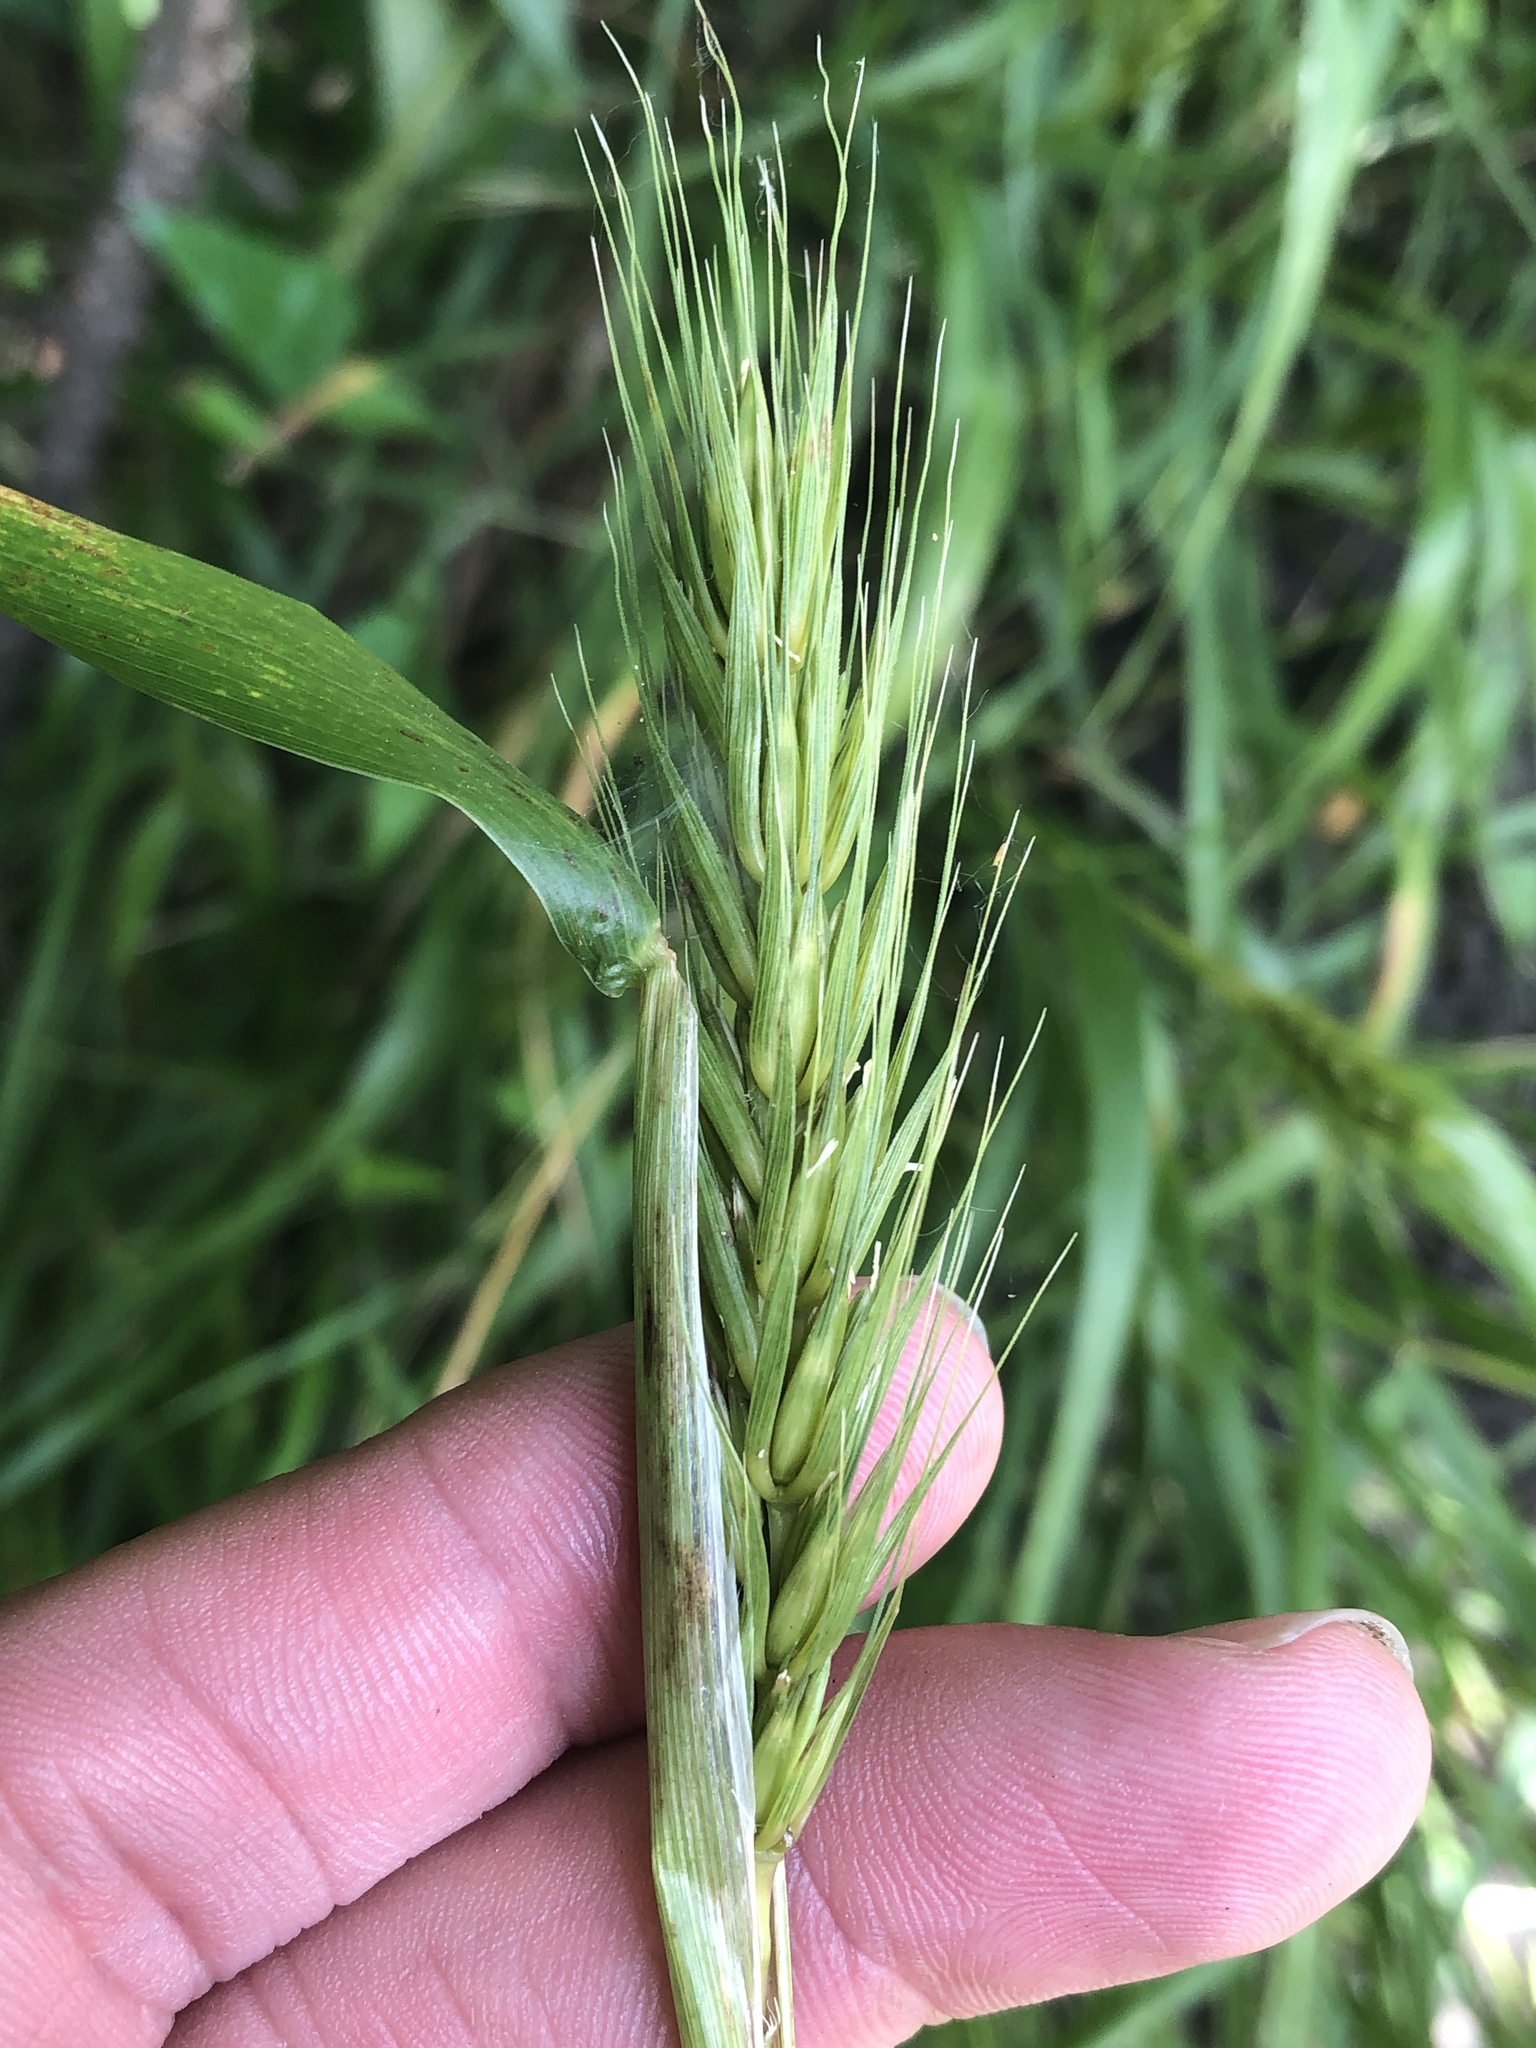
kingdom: Plantae
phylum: Tracheophyta
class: Liliopsida
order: Poales
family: Poaceae
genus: Elymus
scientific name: Elymus virginicus
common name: Common eastern wildrye
